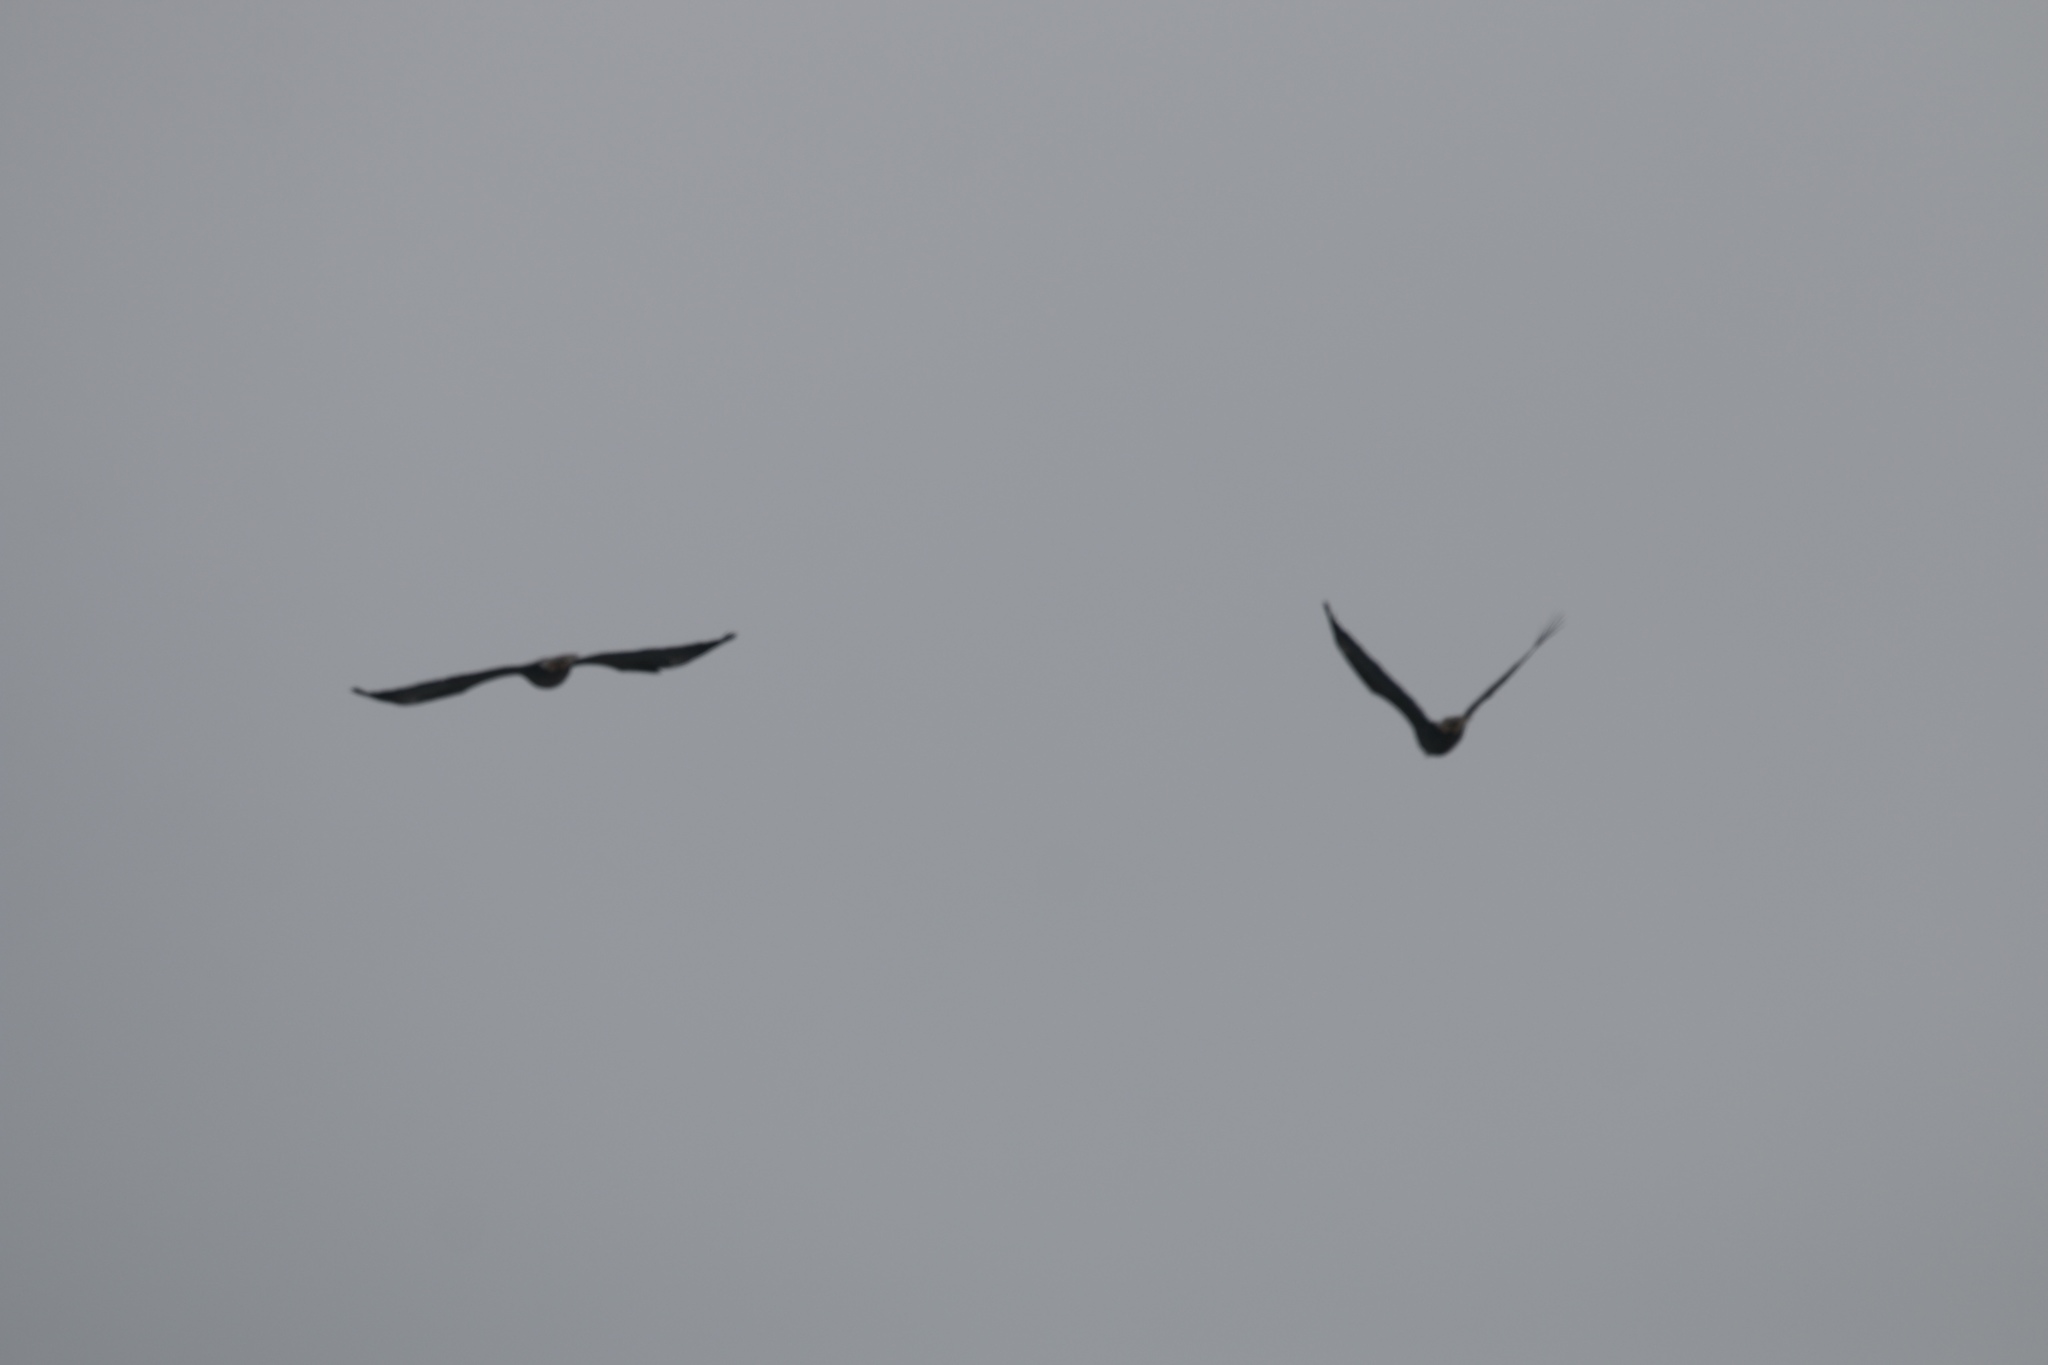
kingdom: Animalia
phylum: Chordata
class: Aves
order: Accipitriformes
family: Accipitridae
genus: Haliaeetus
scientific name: Haliaeetus leucocephalus
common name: Bald eagle
